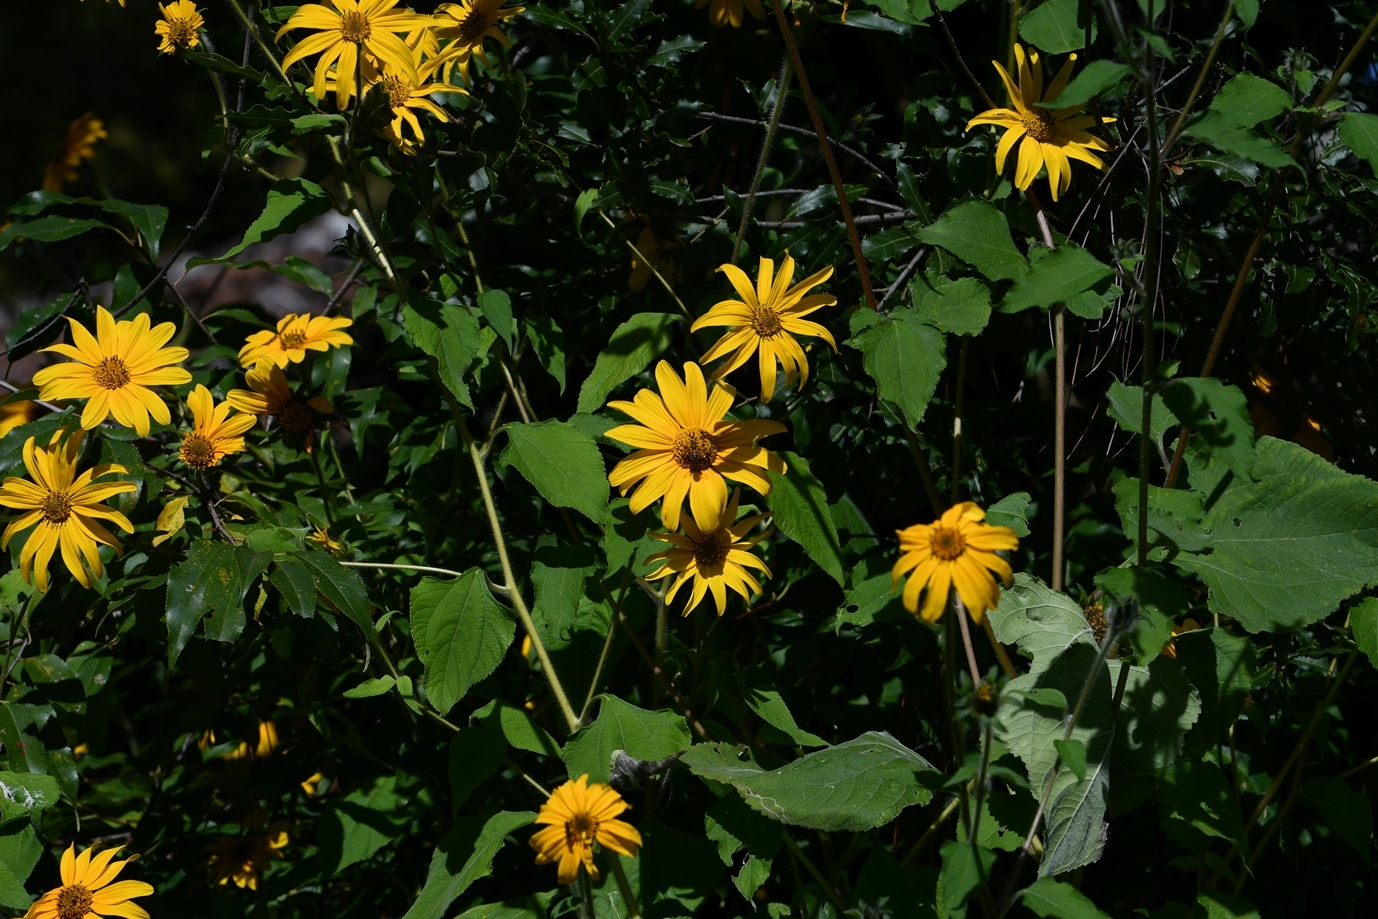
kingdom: Plantae
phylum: Tracheophyta
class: Magnoliopsida
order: Asterales
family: Asteraceae
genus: Tithonia
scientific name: Tithonia tubaeformis
